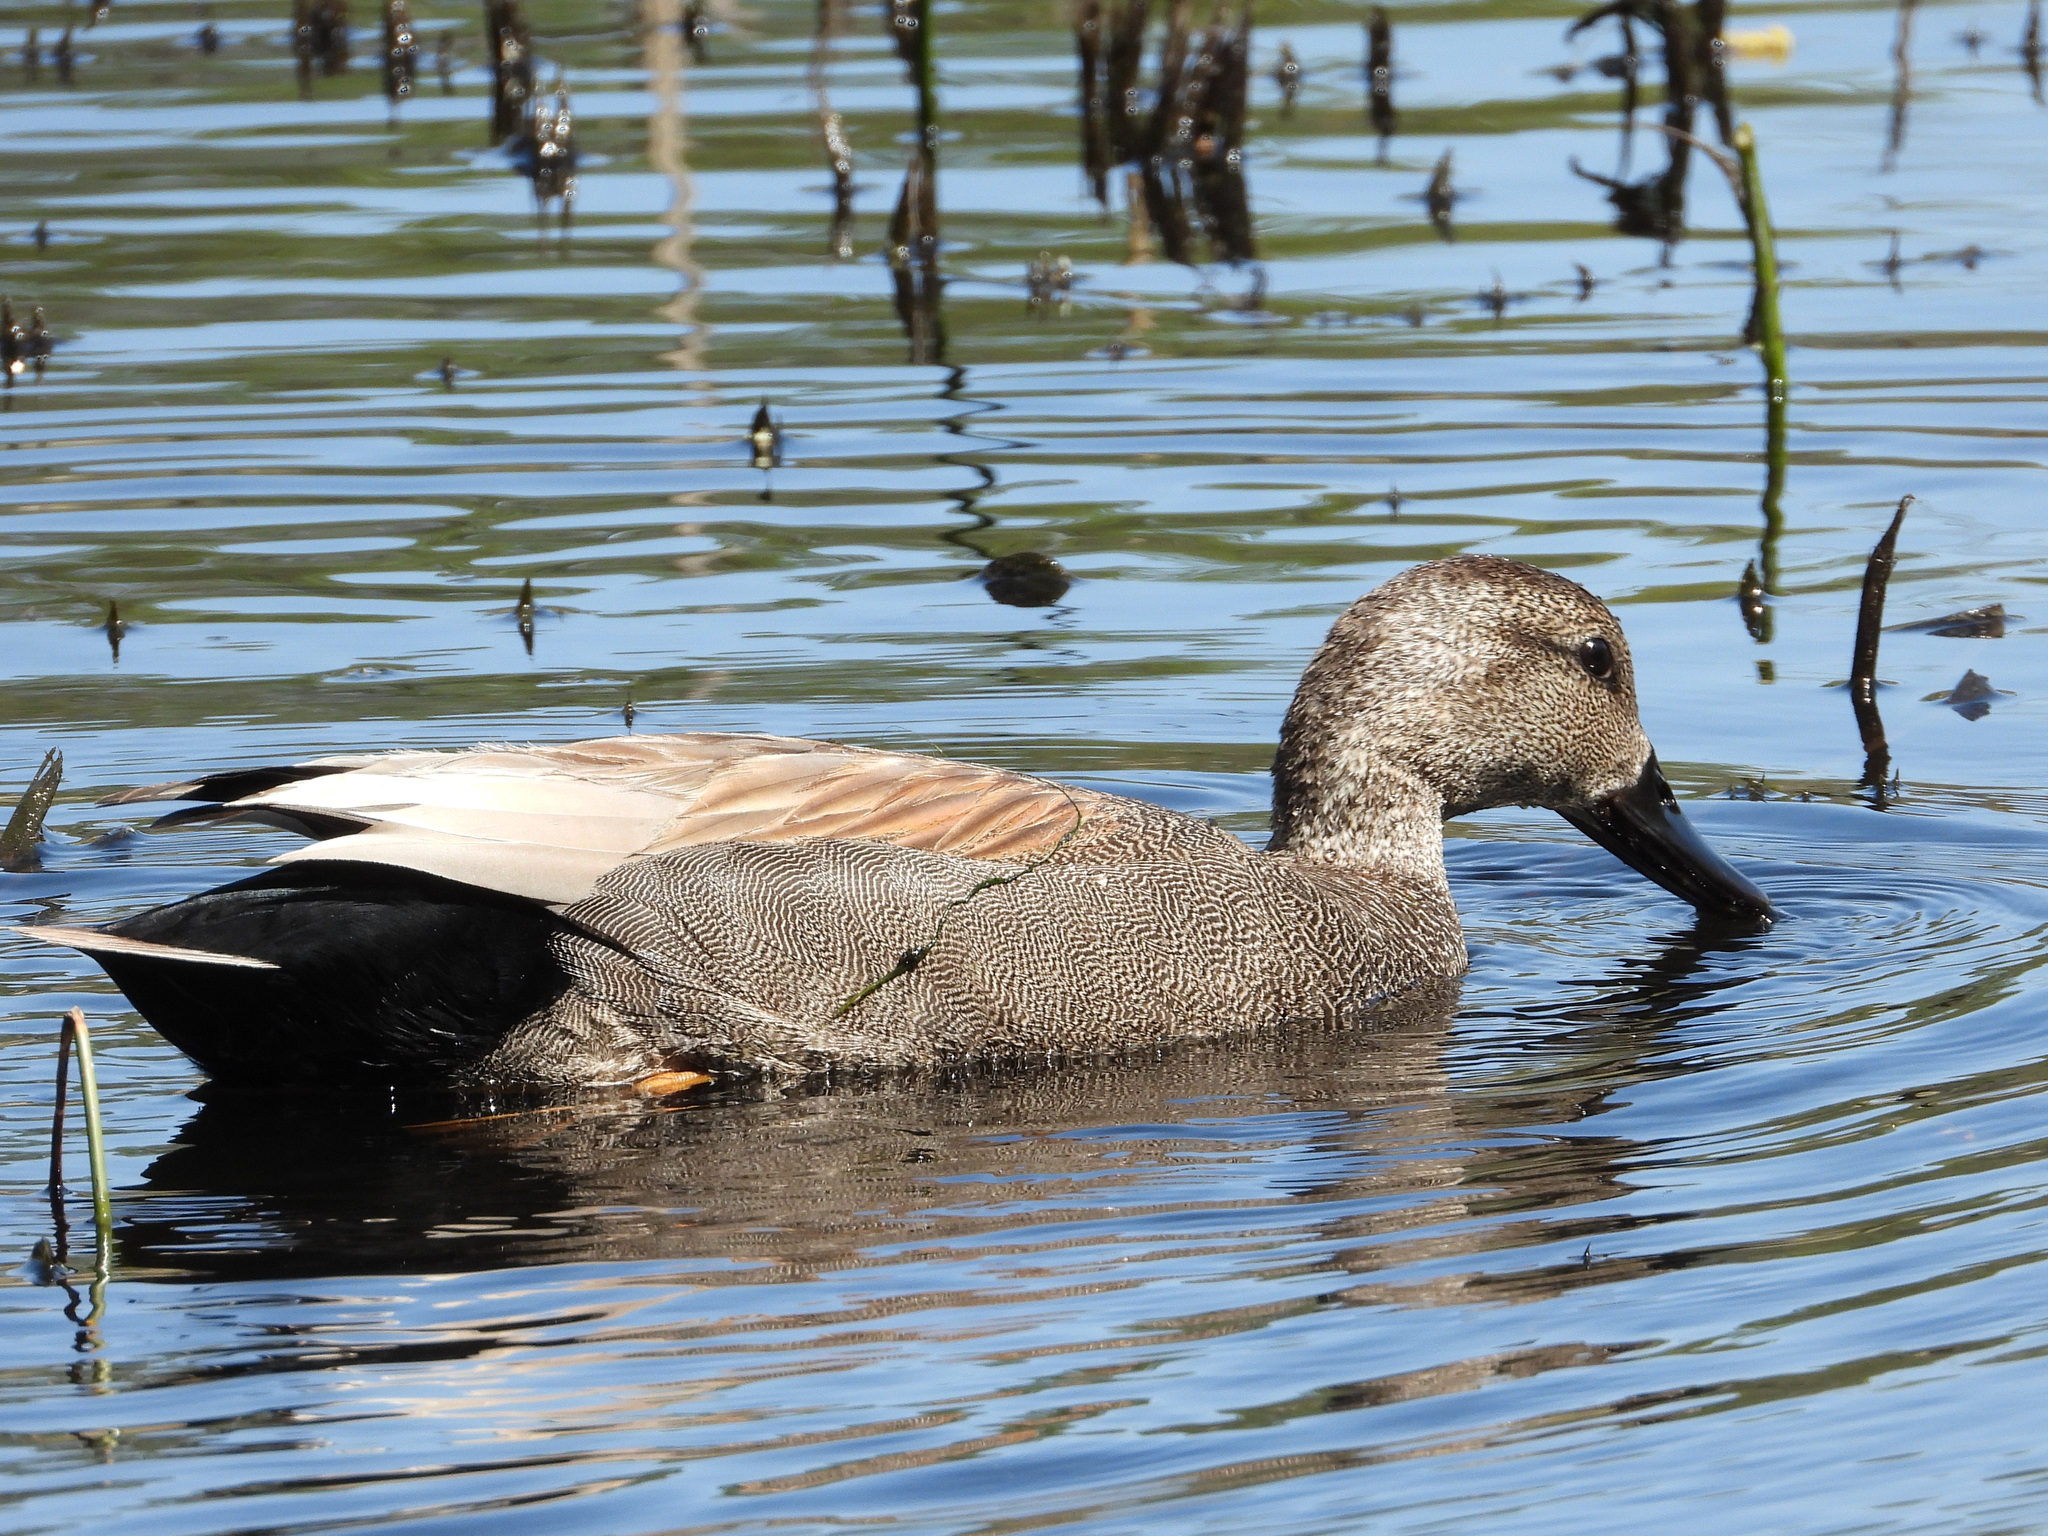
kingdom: Animalia
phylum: Chordata
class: Aves
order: Anseriformes
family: Anatidae
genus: Mareca
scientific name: Mareca strepera
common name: Gadwall
